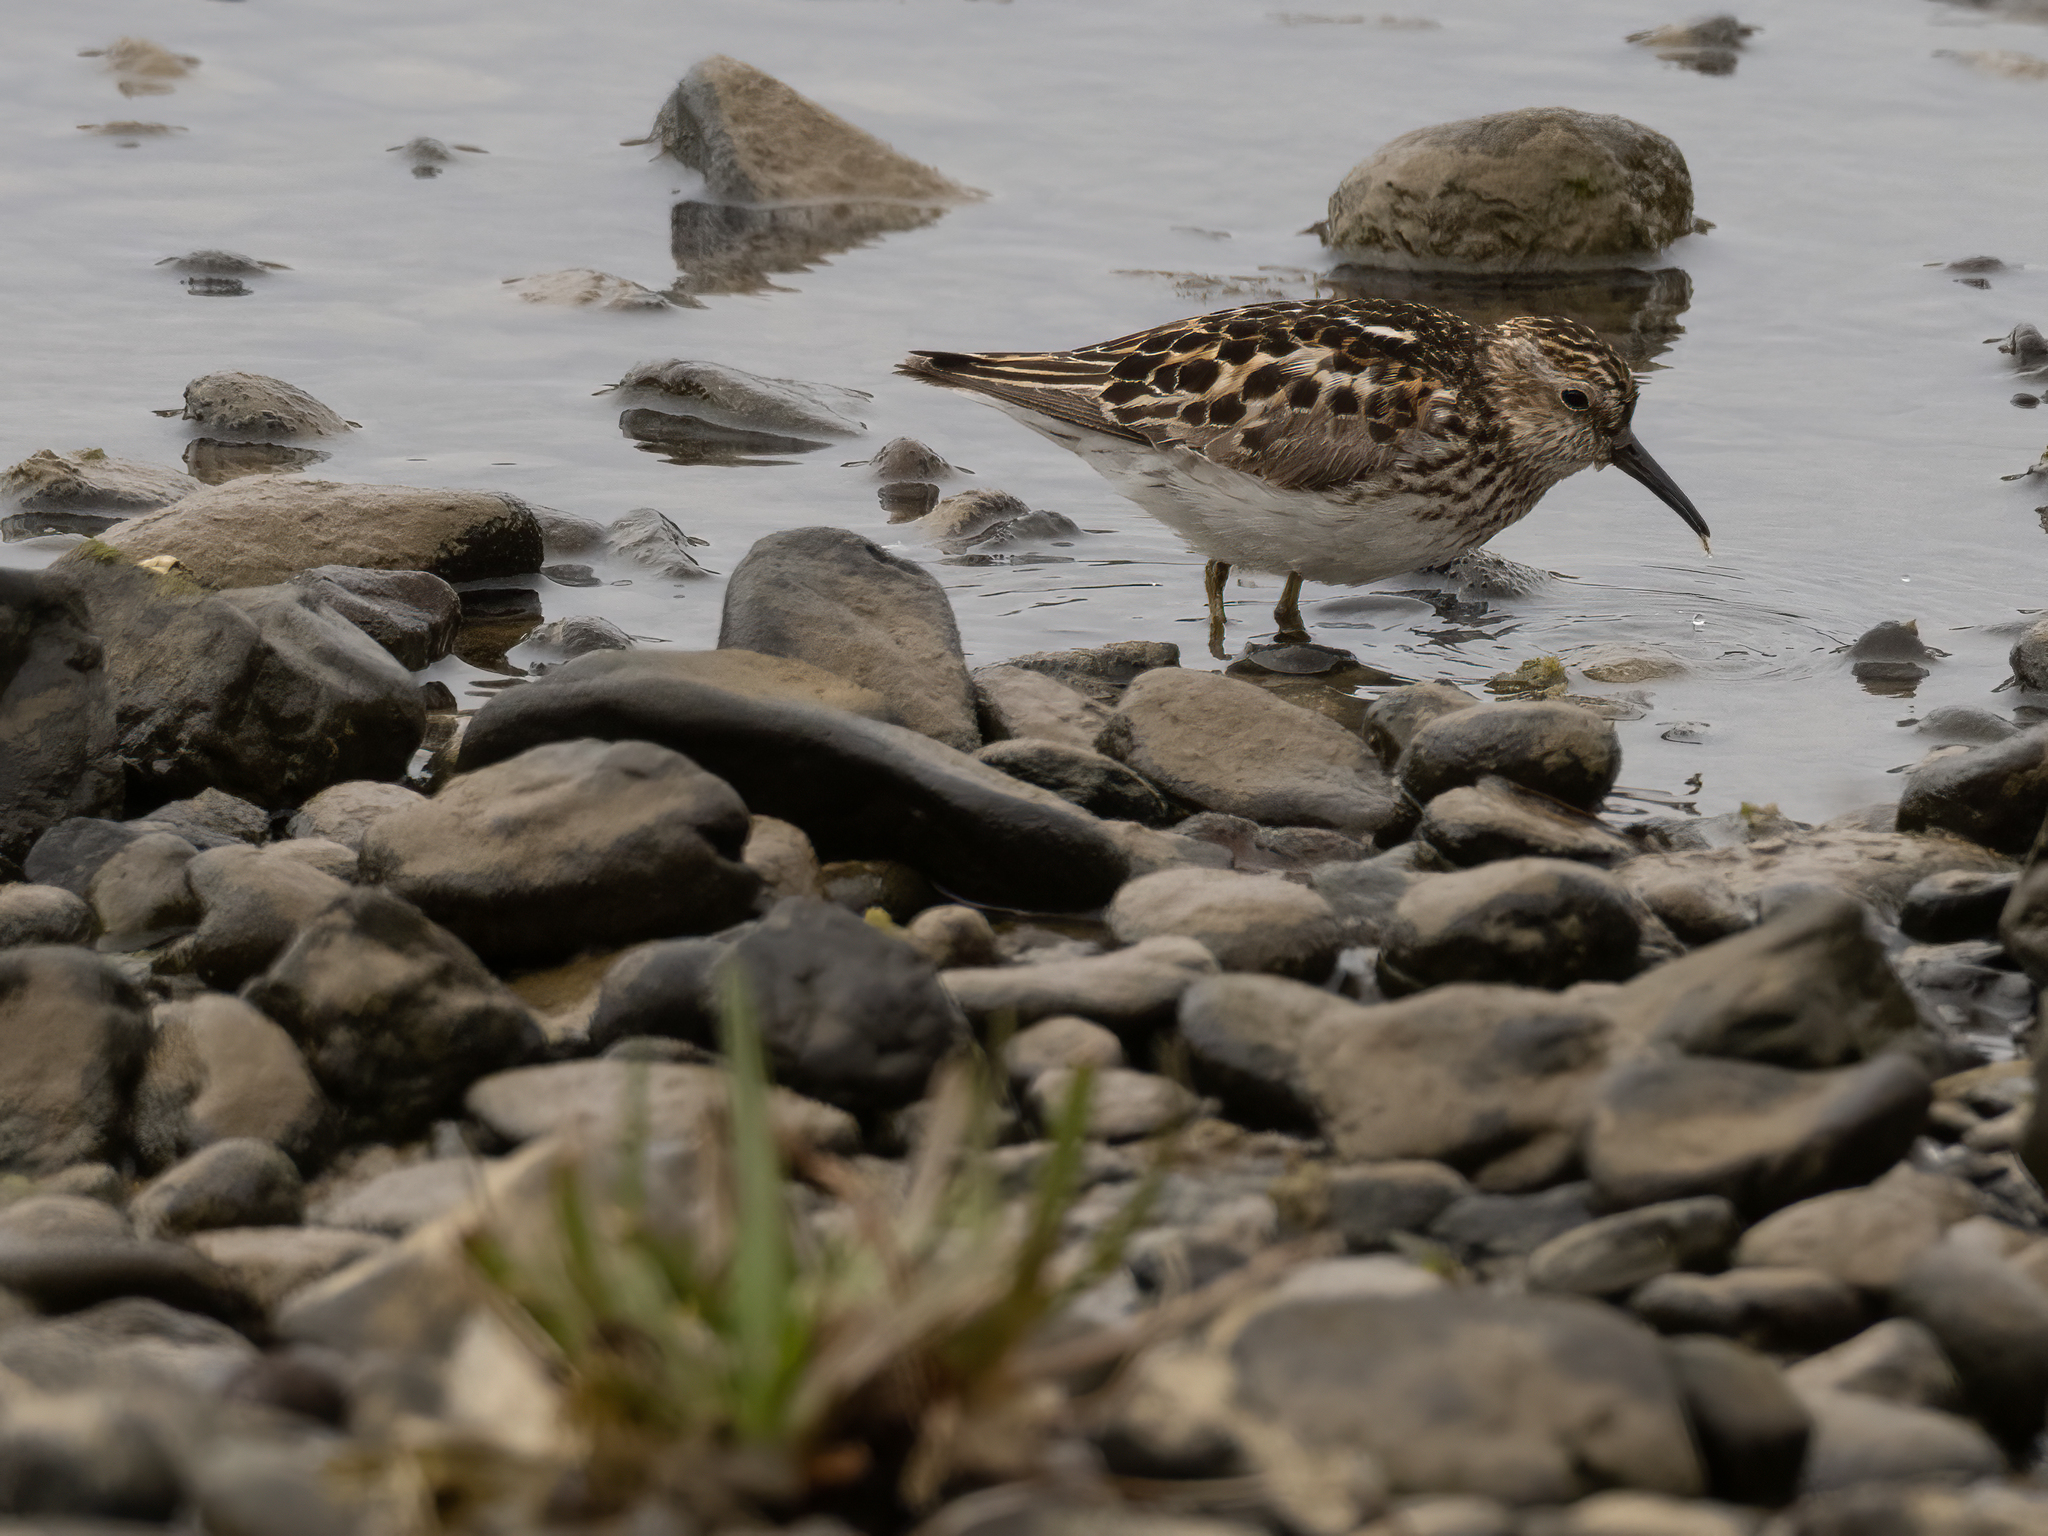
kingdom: Animalia
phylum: Chordata
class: Aves
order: Charadriiformes
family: Scolopacidae
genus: Calidris
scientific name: Calidris minutilla
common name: Least sandpiper
